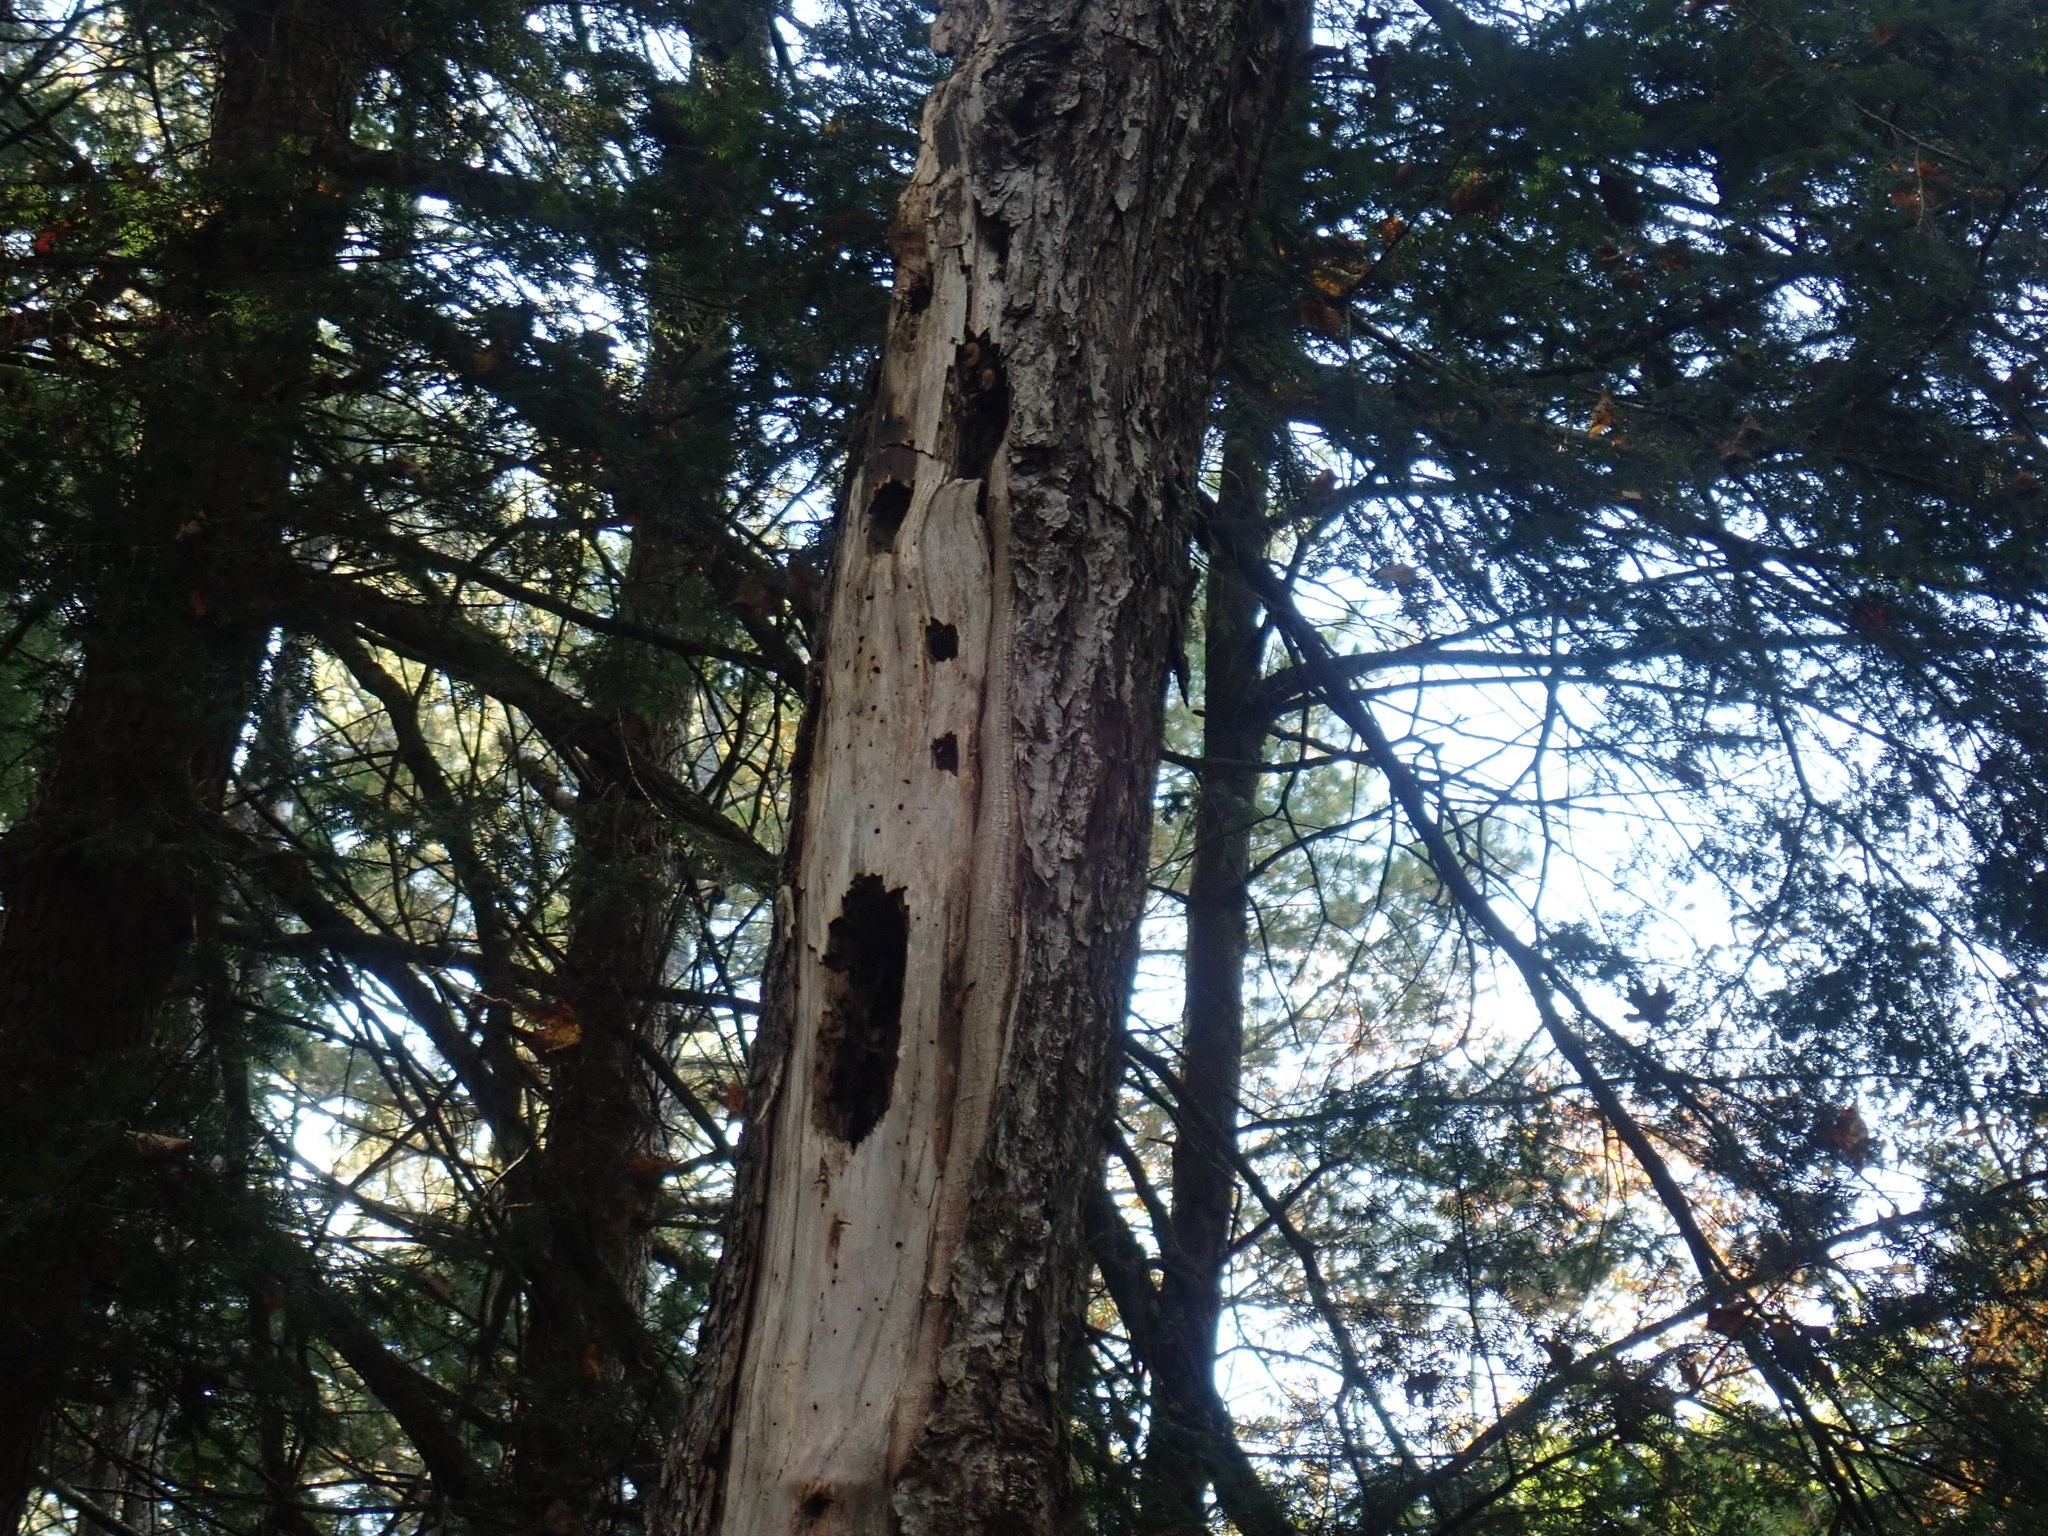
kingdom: Animalia
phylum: Chordata
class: Aves
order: Piciformes
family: Picidae
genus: Dryocopus
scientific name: Dryocopus pileatus
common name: Pileated woodpecker
